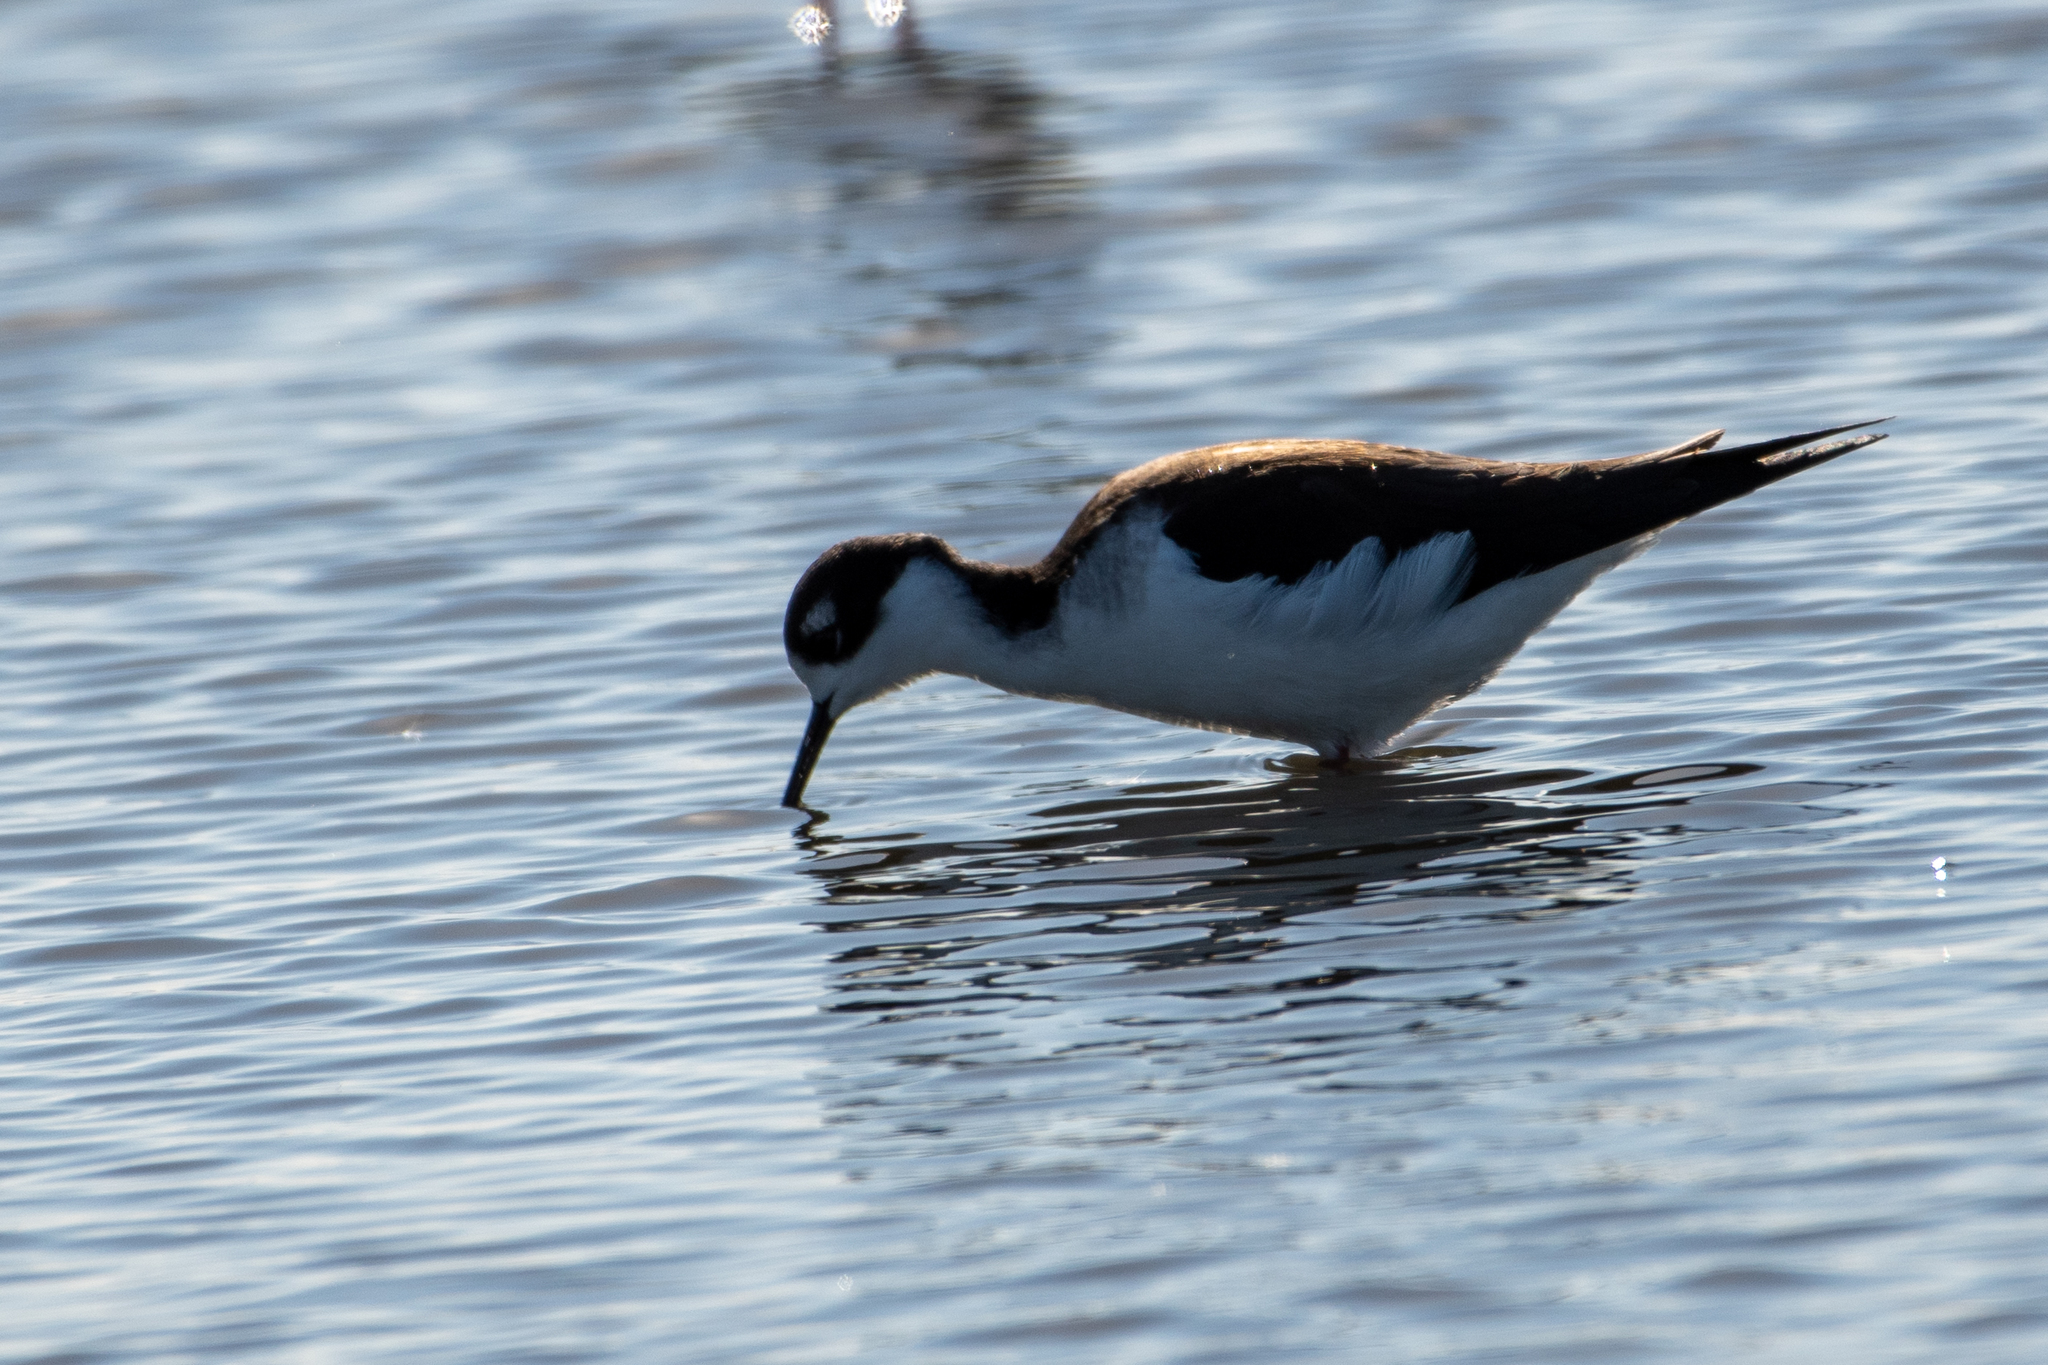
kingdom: Animalia
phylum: Chordata
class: Aves
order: Charadriiformes
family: Recurvirostridae
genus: Himantopus
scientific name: Himantopus mexicanus
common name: Black-necked stilt
